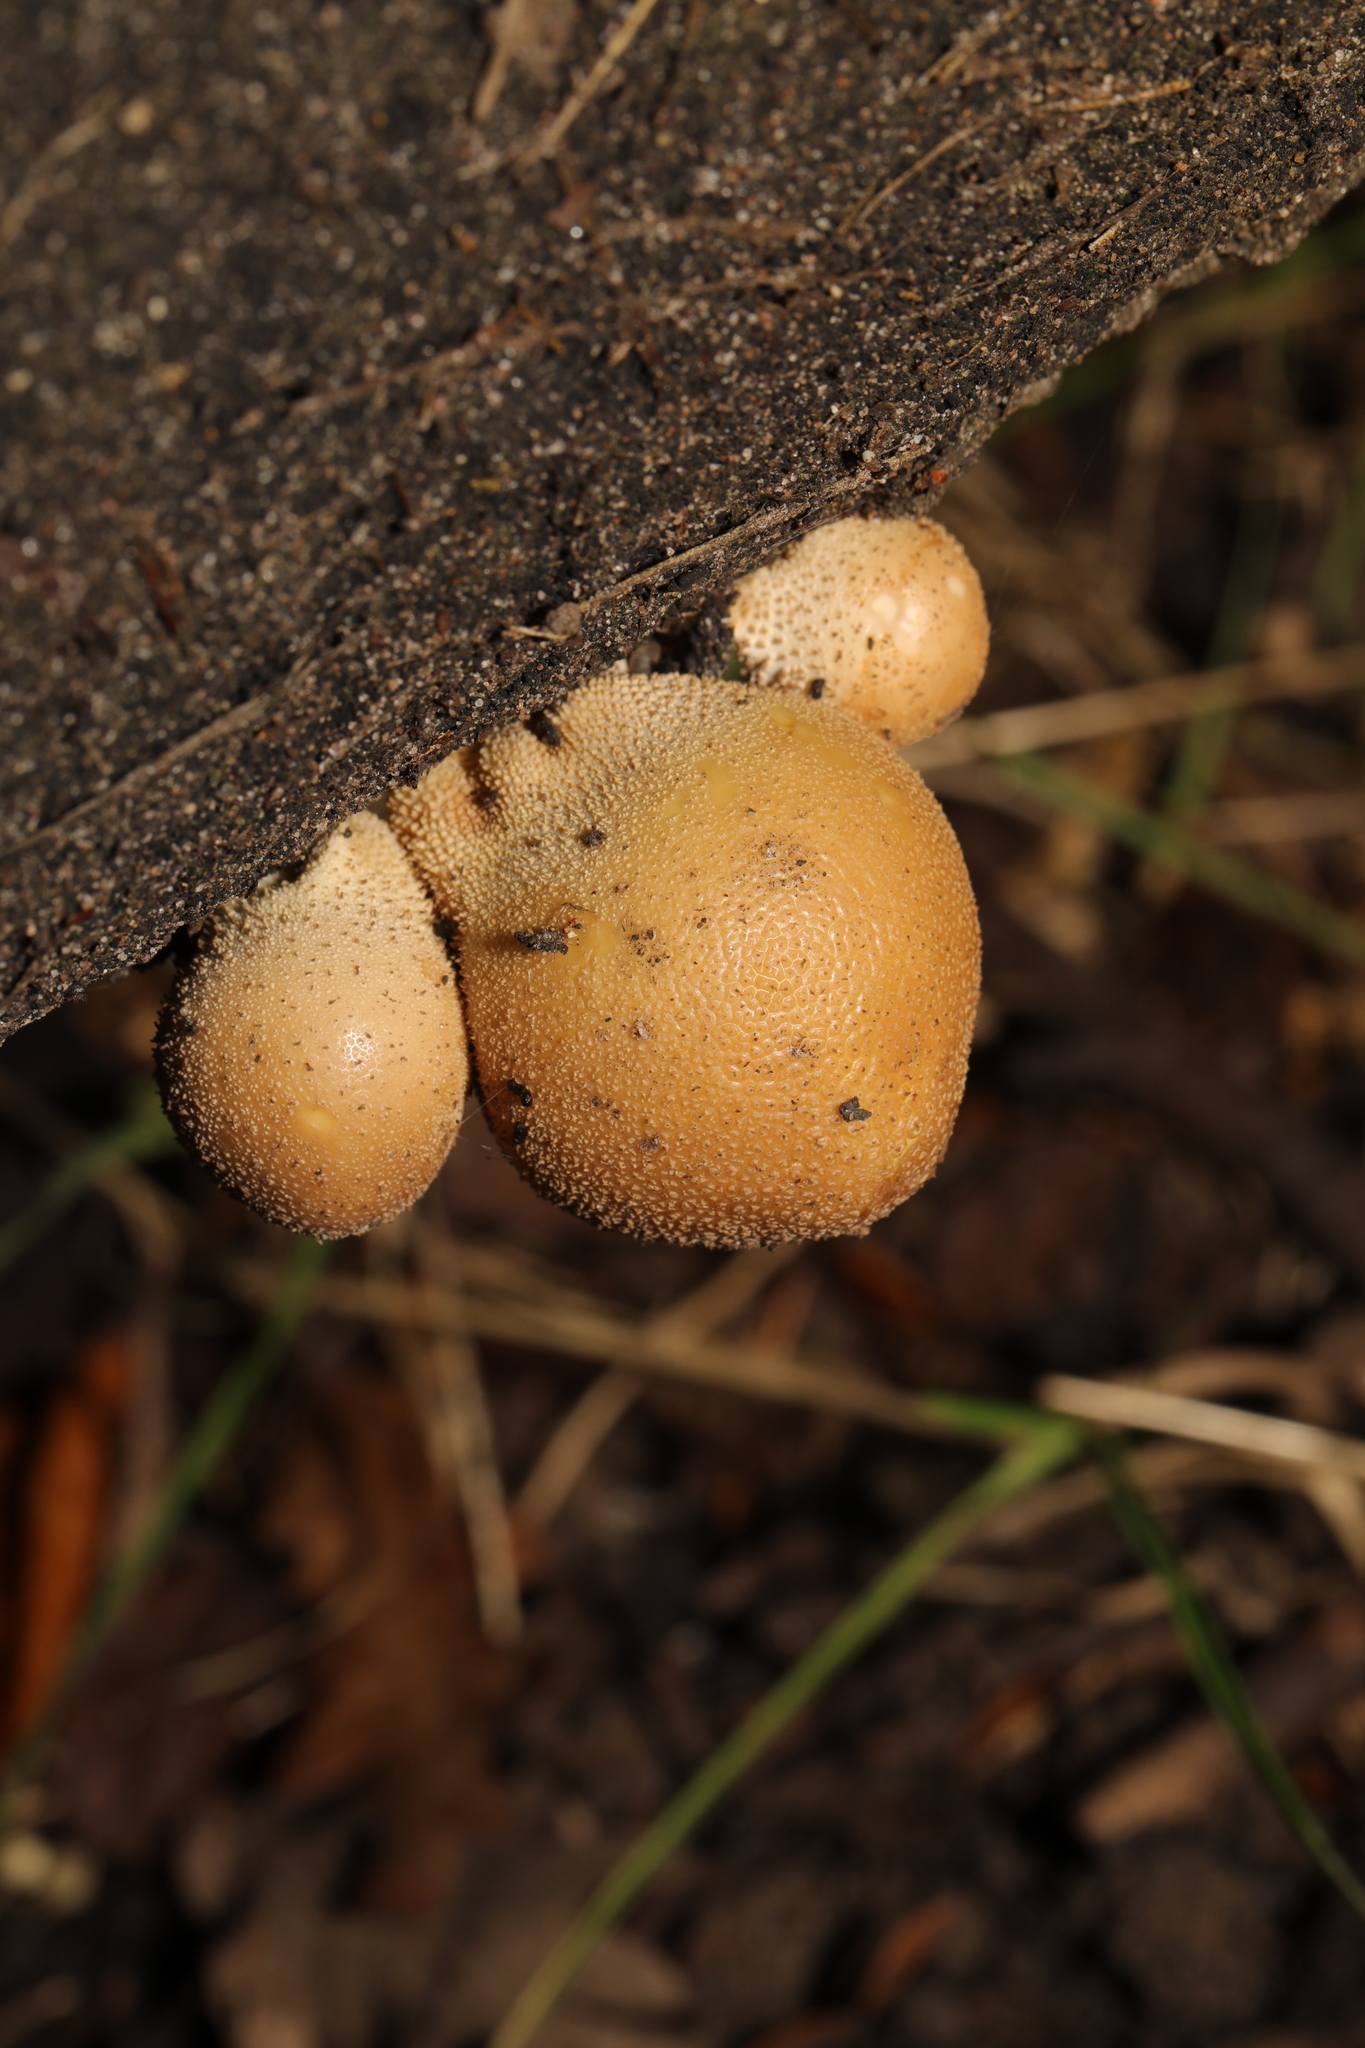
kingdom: Fungi
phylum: Basidiomycota
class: Agaricomycetes
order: Agaricales
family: Lycoperdaceae
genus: Apioperdon
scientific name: Apioperdon pyriforme
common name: Pear-shaped puffball
